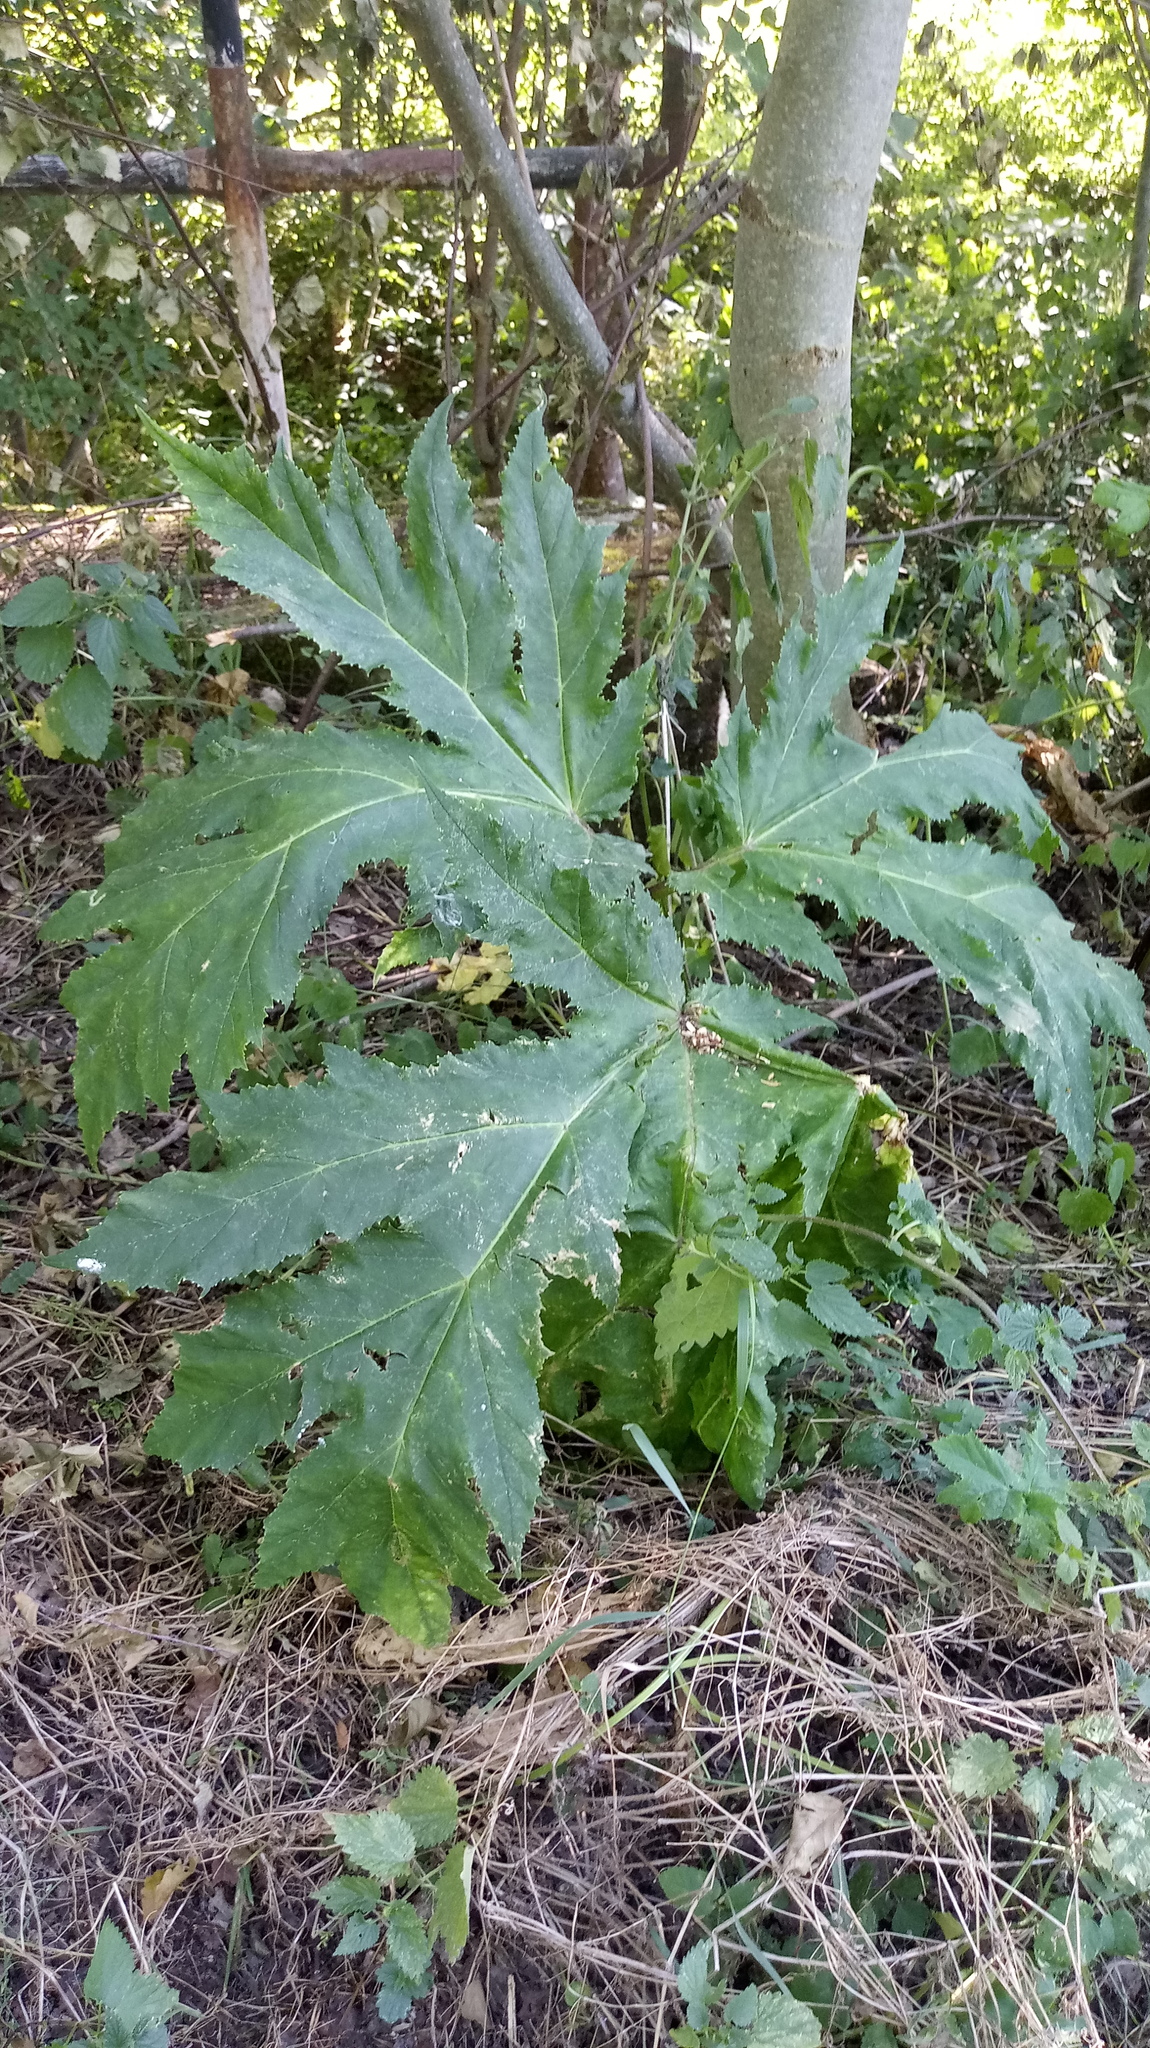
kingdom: Plantae
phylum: Tracheophyta
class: Magnoliopsida
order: Apiales
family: Apiaceae
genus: Heracleum
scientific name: Heracleum mantegazzianum
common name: Giant hogweed
